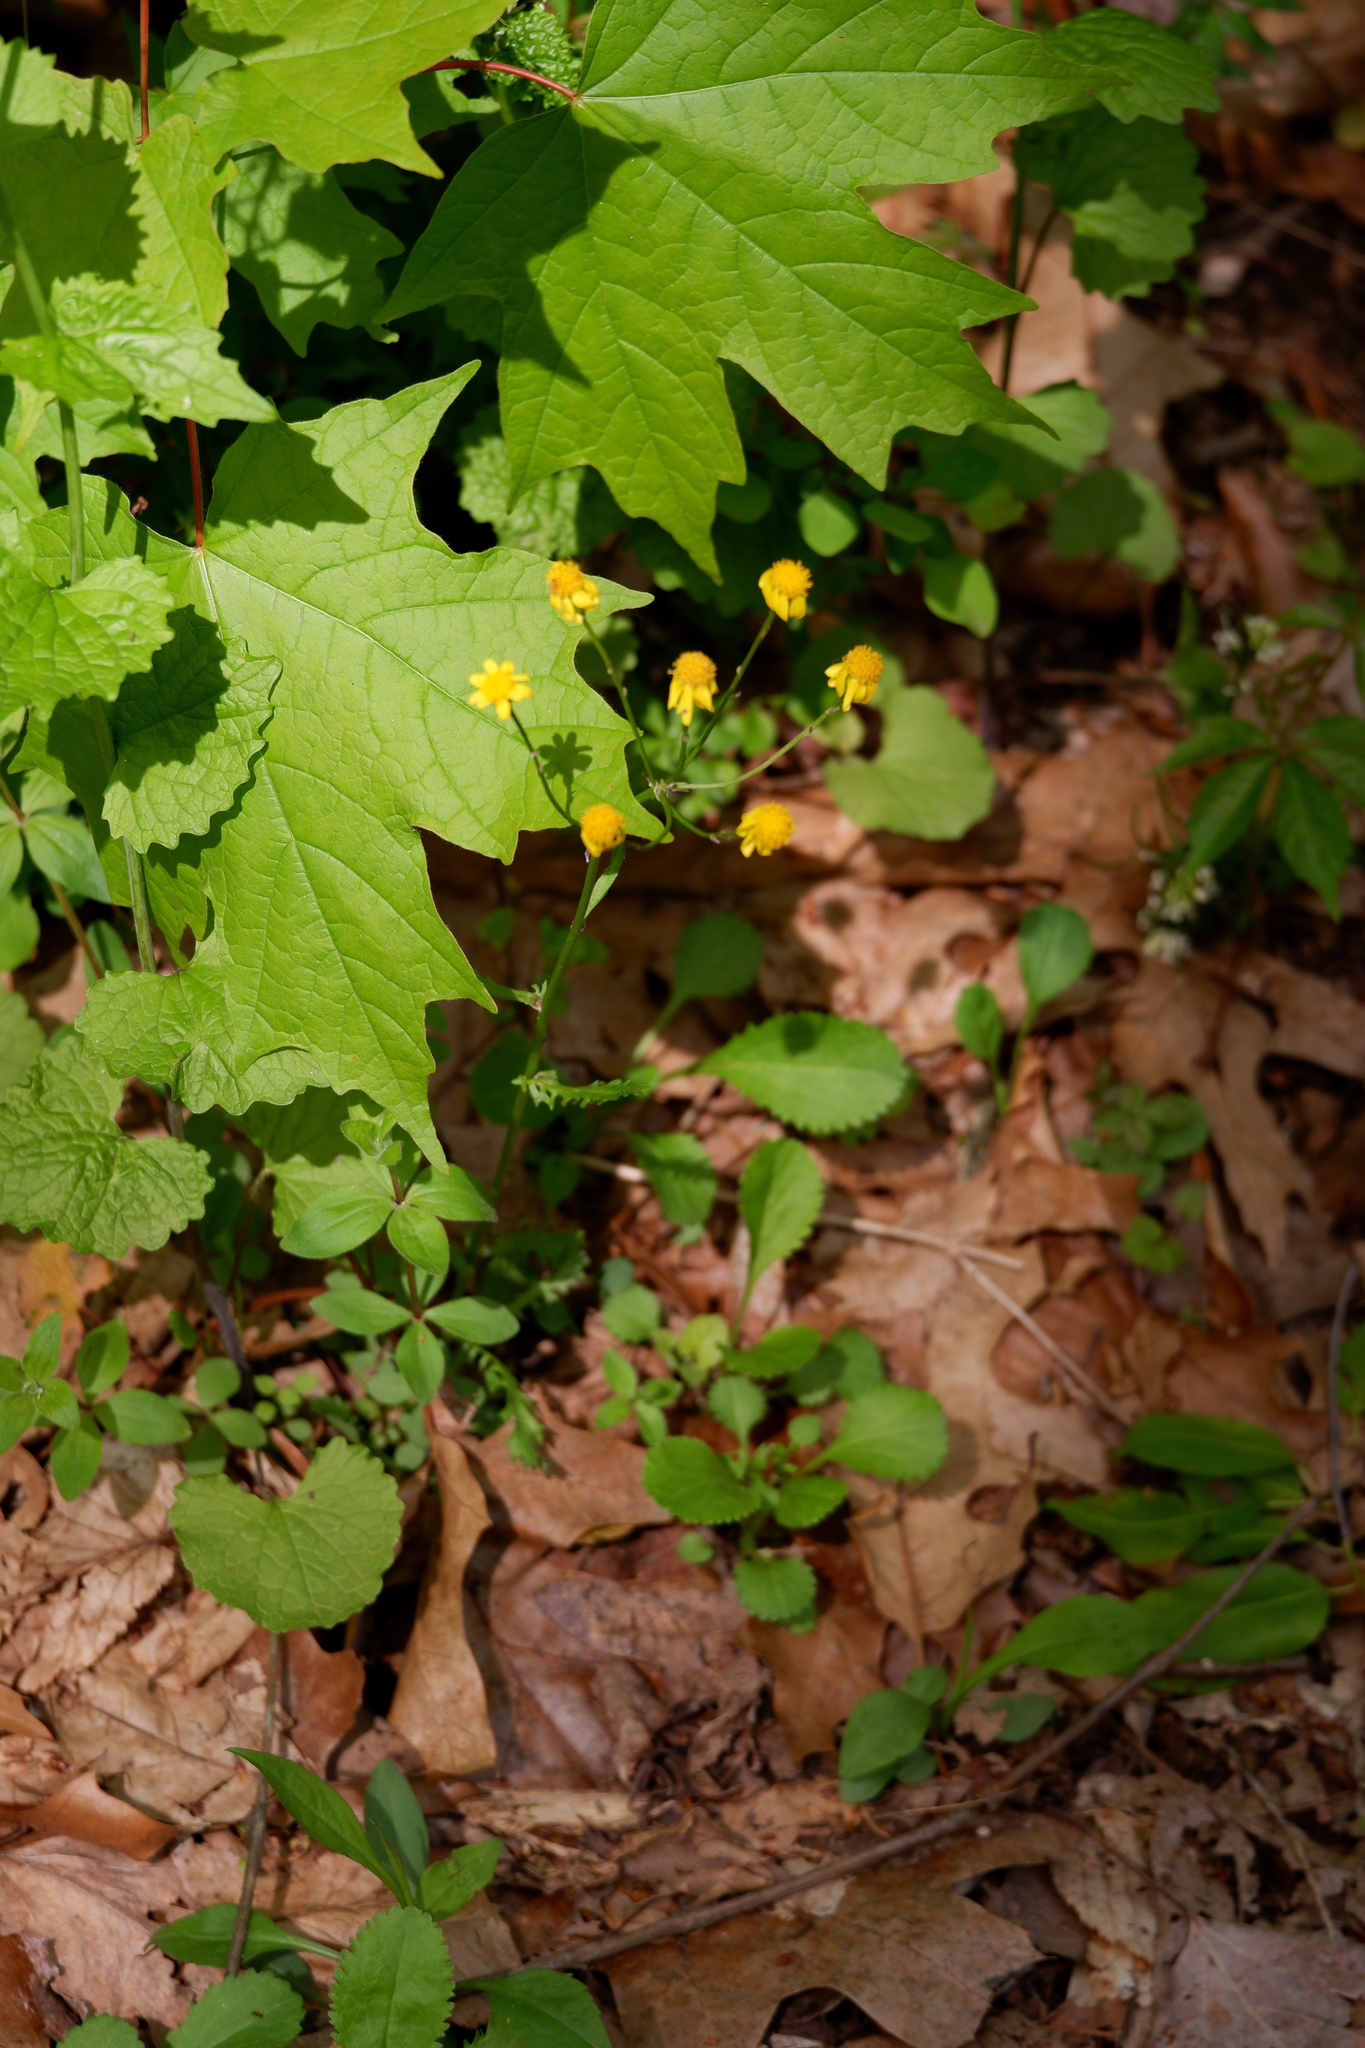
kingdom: Plantae
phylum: Tracheophyta
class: Magnoliopsida
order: Asterales
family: Asteraceae
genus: Packera
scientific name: Packera aurea
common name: Golden groundsel
